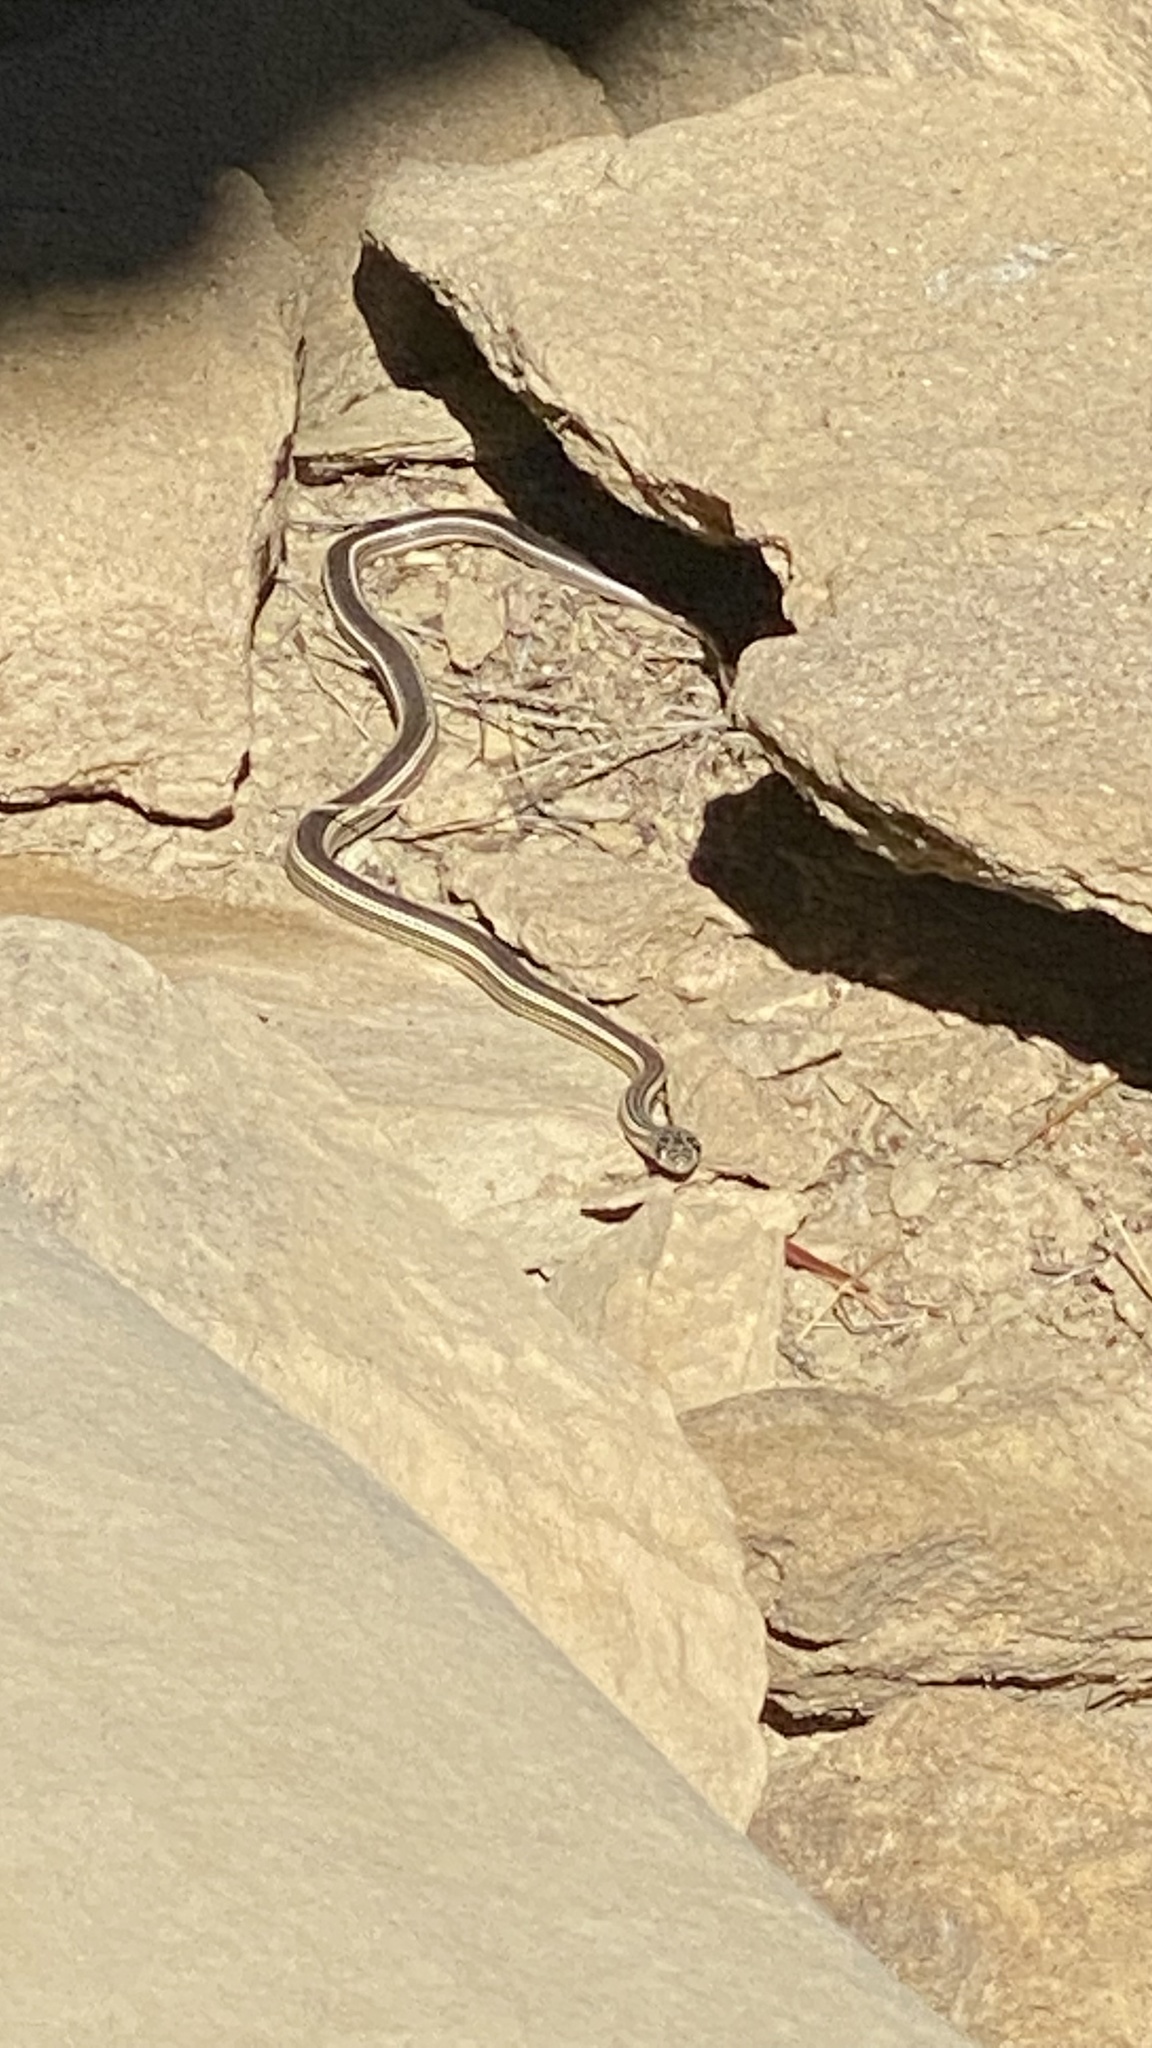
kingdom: Animalia
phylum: Chordata
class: Squamata
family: Colubridae
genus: Masticophis
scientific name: Masticophis taeniatus
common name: Striped whipsnake
